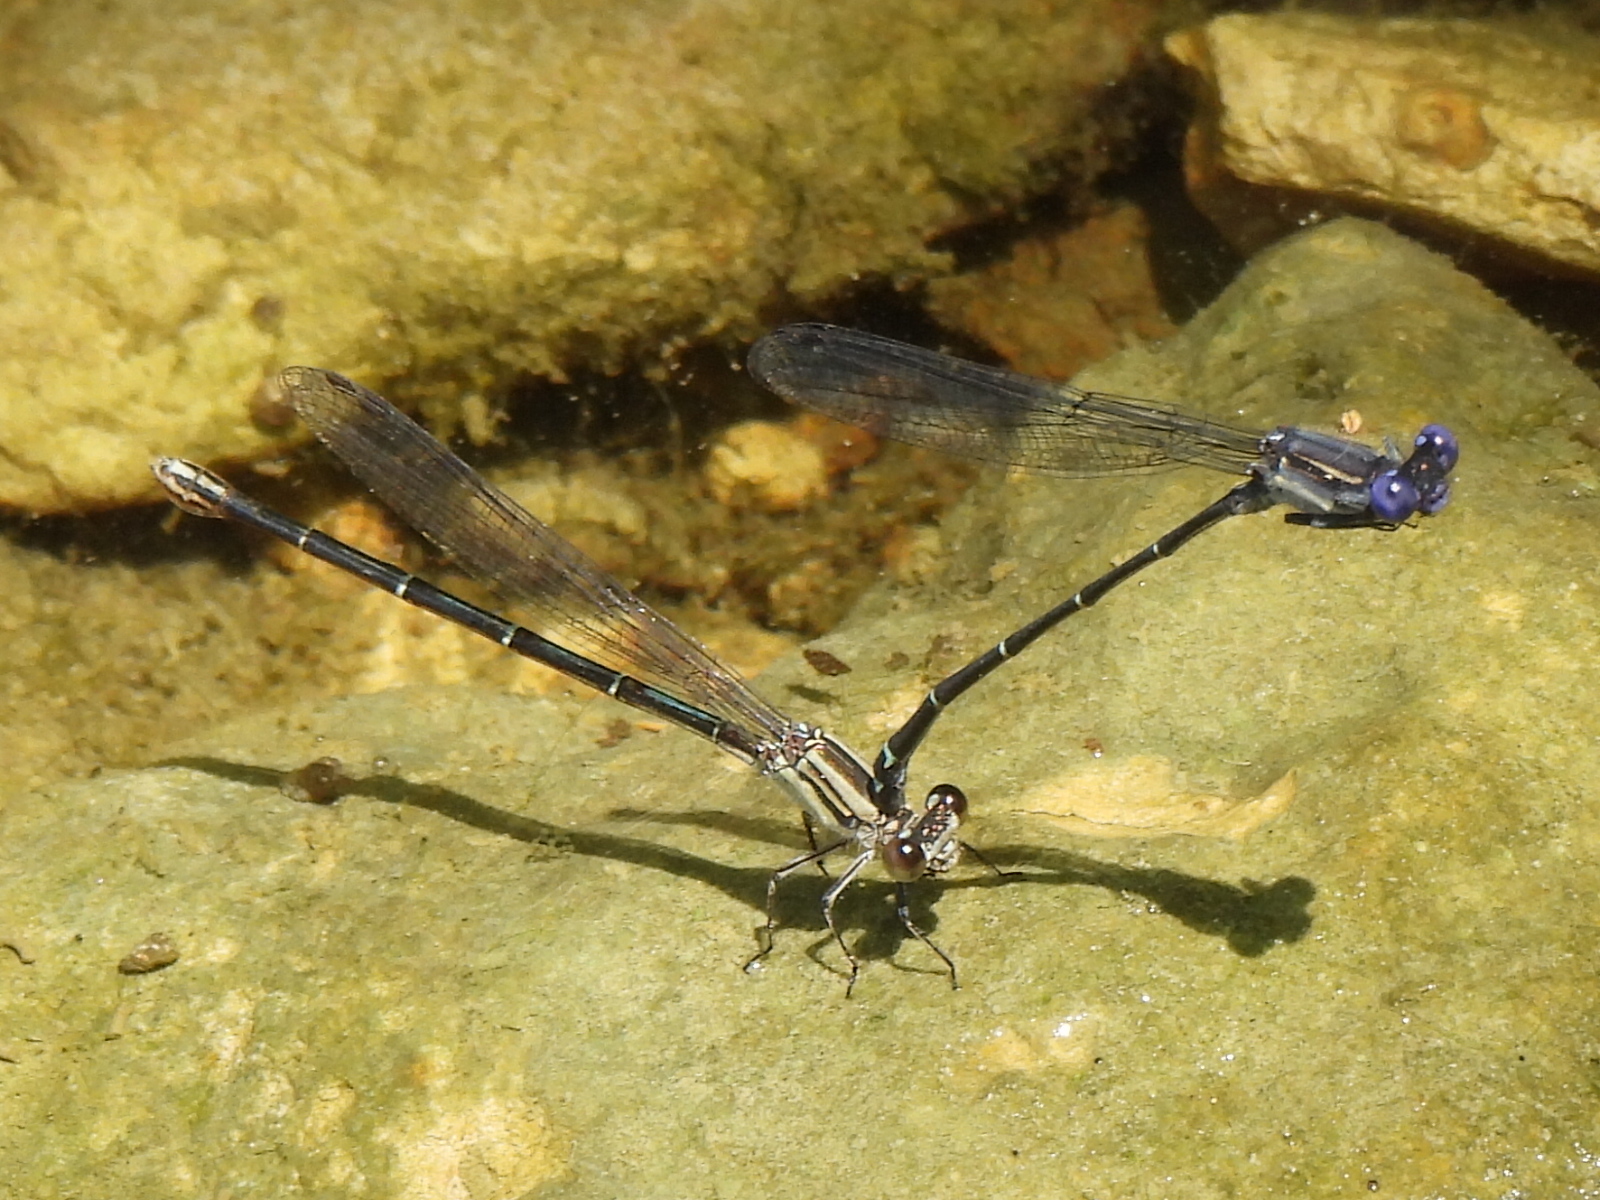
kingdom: Animalia
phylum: Arthropoda
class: Insecta
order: Odonata
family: Coenagrionidae
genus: Argia
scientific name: Argia translata
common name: Dusky dancer
